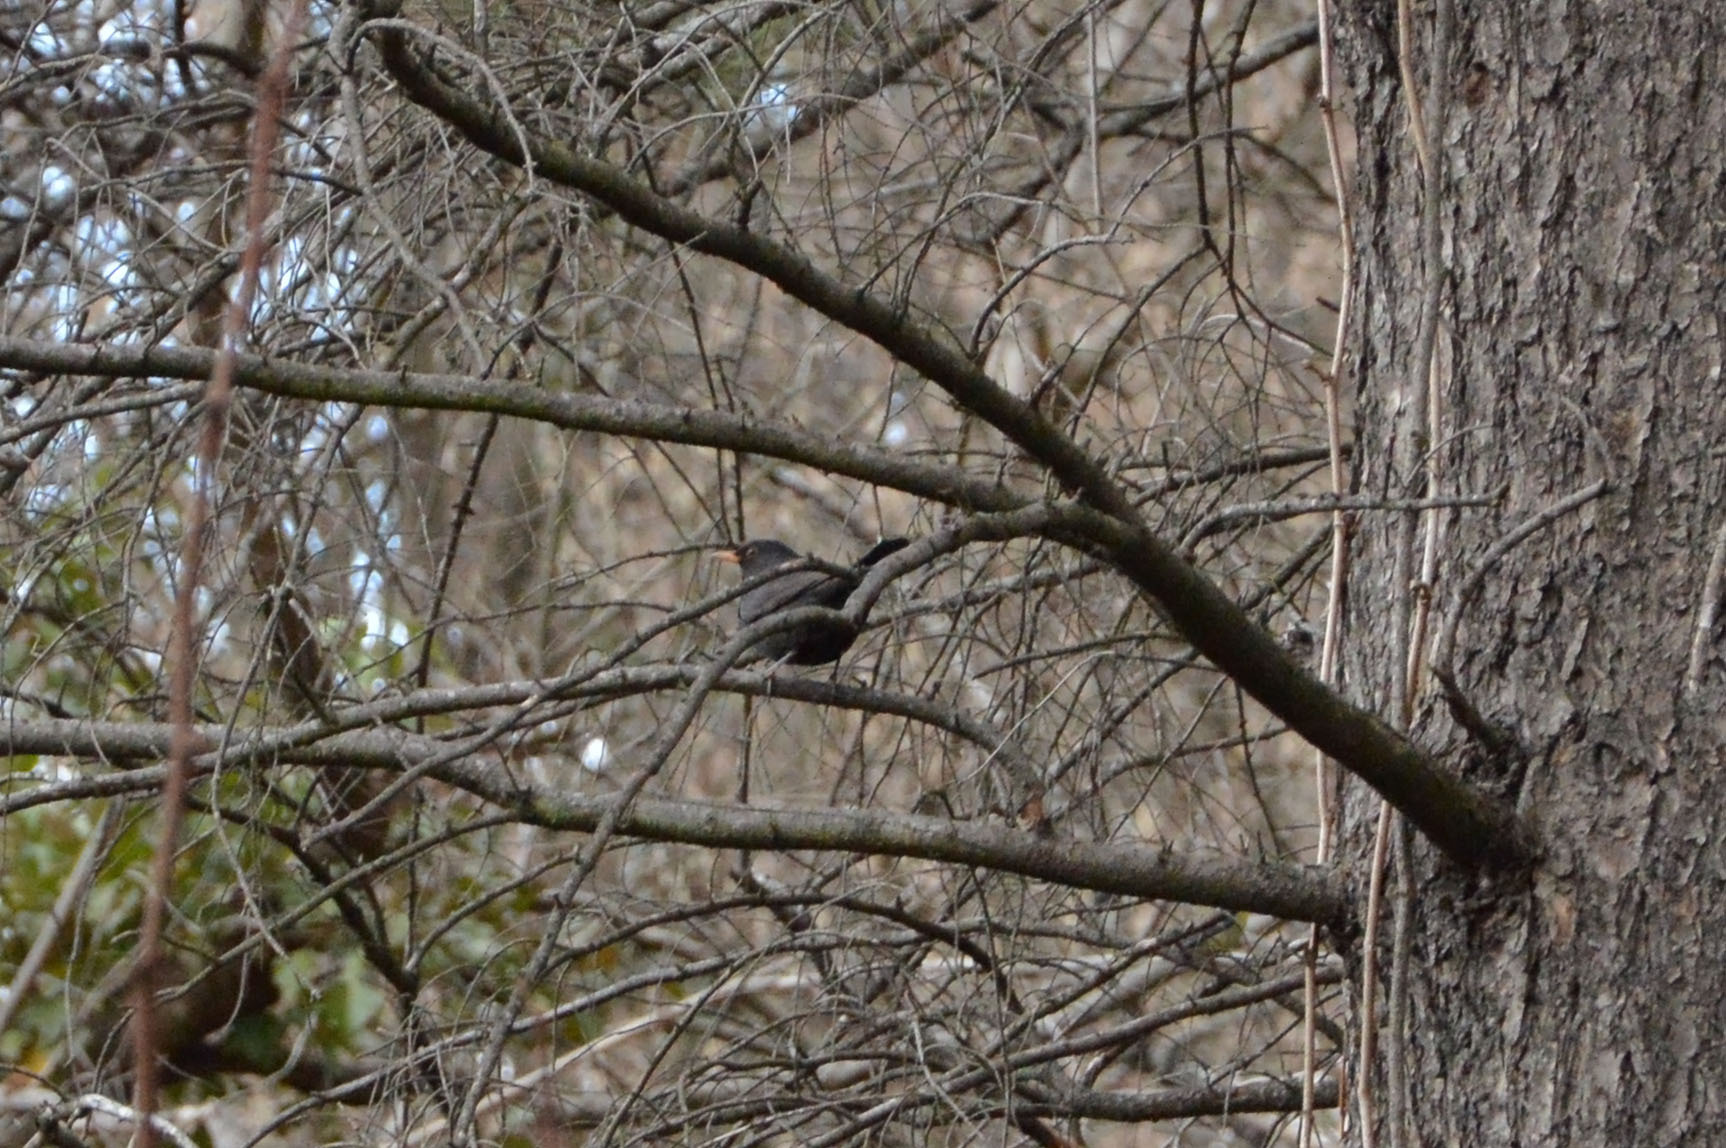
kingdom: Animalia
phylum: Chordata
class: Aves
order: Passeriformes
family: Turdidae
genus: Turdus
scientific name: Turdus merula
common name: Common blackbird
